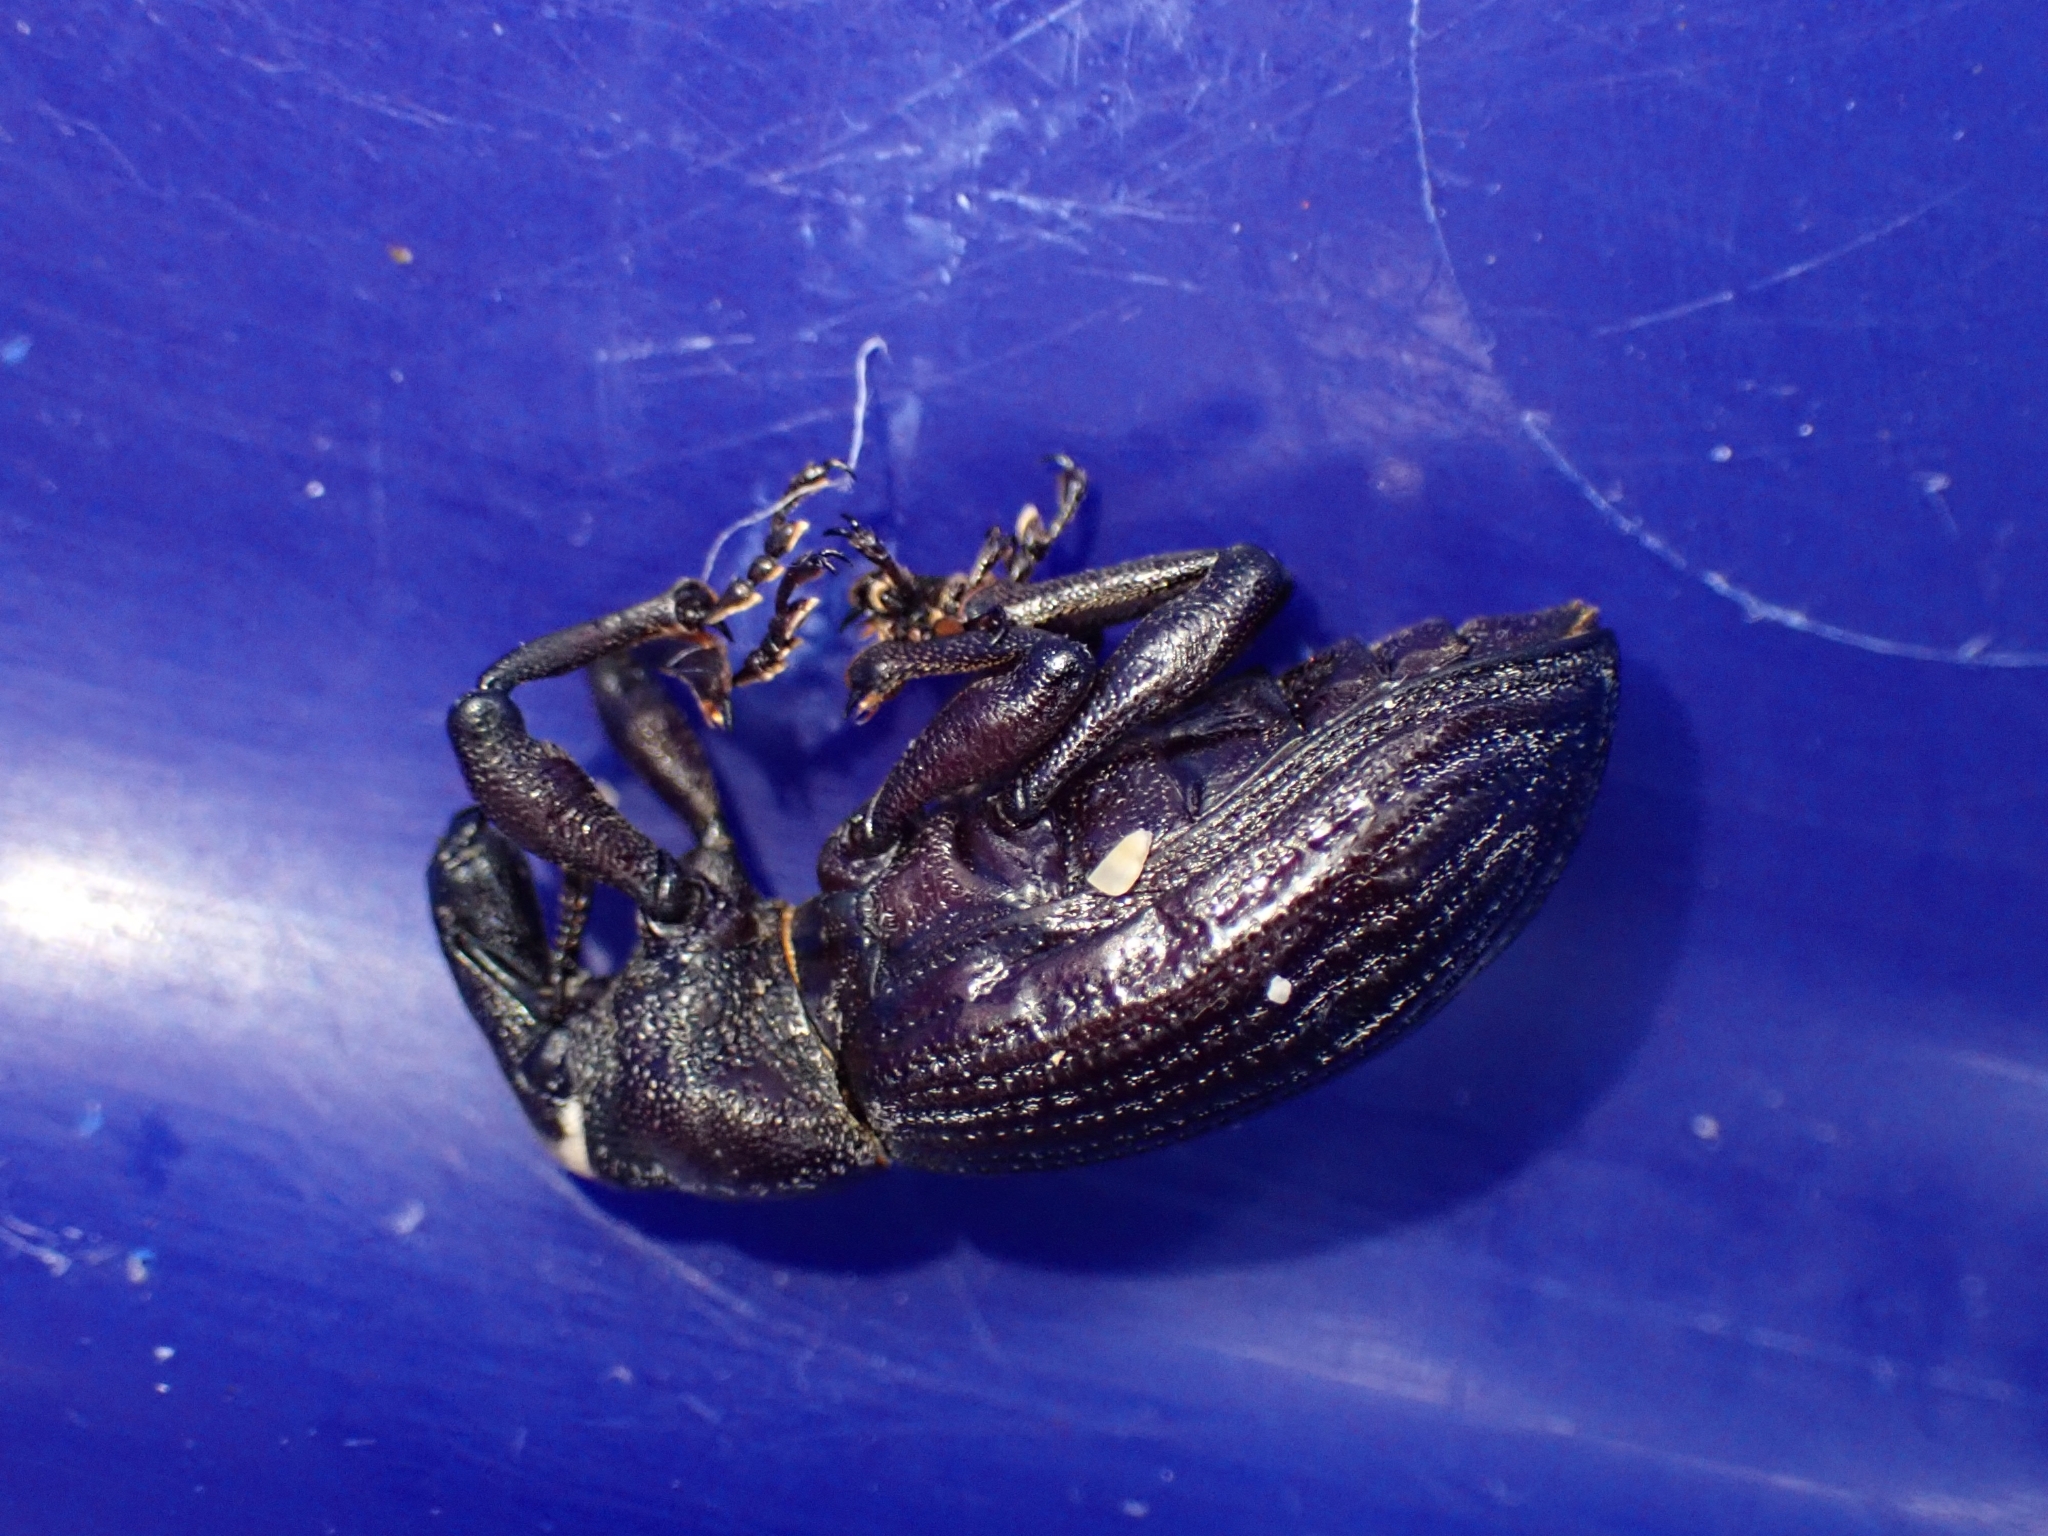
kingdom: Animalia
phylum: Arthropoda
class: Insecta
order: Coleoptera
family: Curculionidae
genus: Lyperobius
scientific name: Lyperobius huttoni
